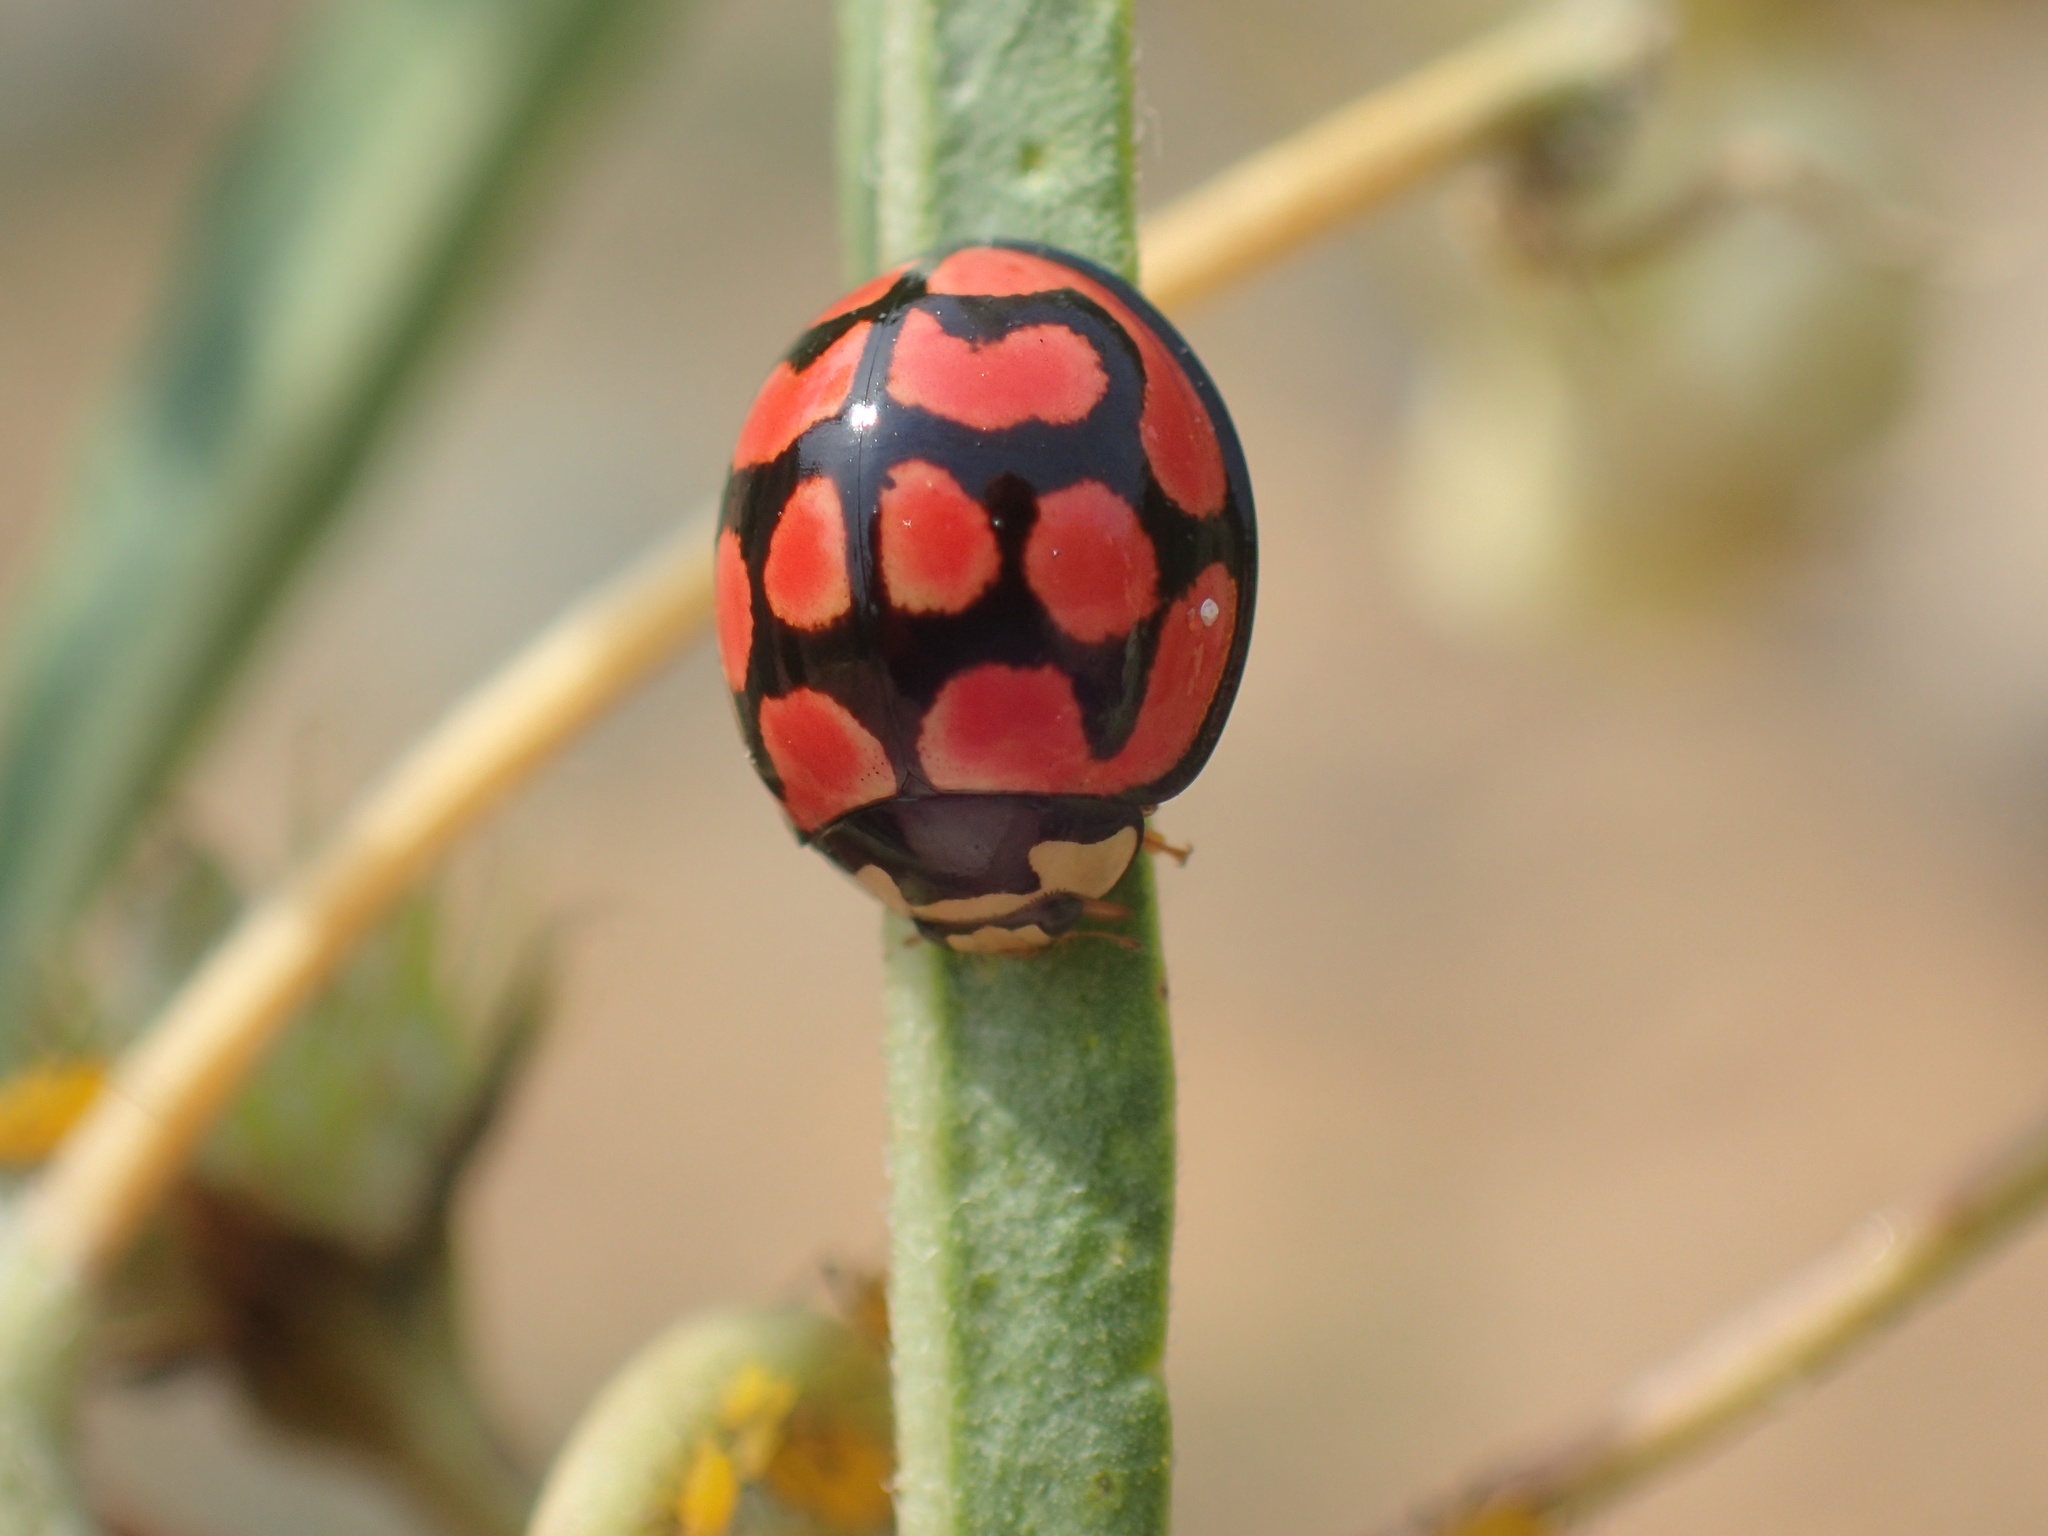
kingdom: Animalia
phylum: Arthropoda
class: Insecta
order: Coleoptera
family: Coccinellidae
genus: Cheilomenes
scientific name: Cheilomenes lunata
